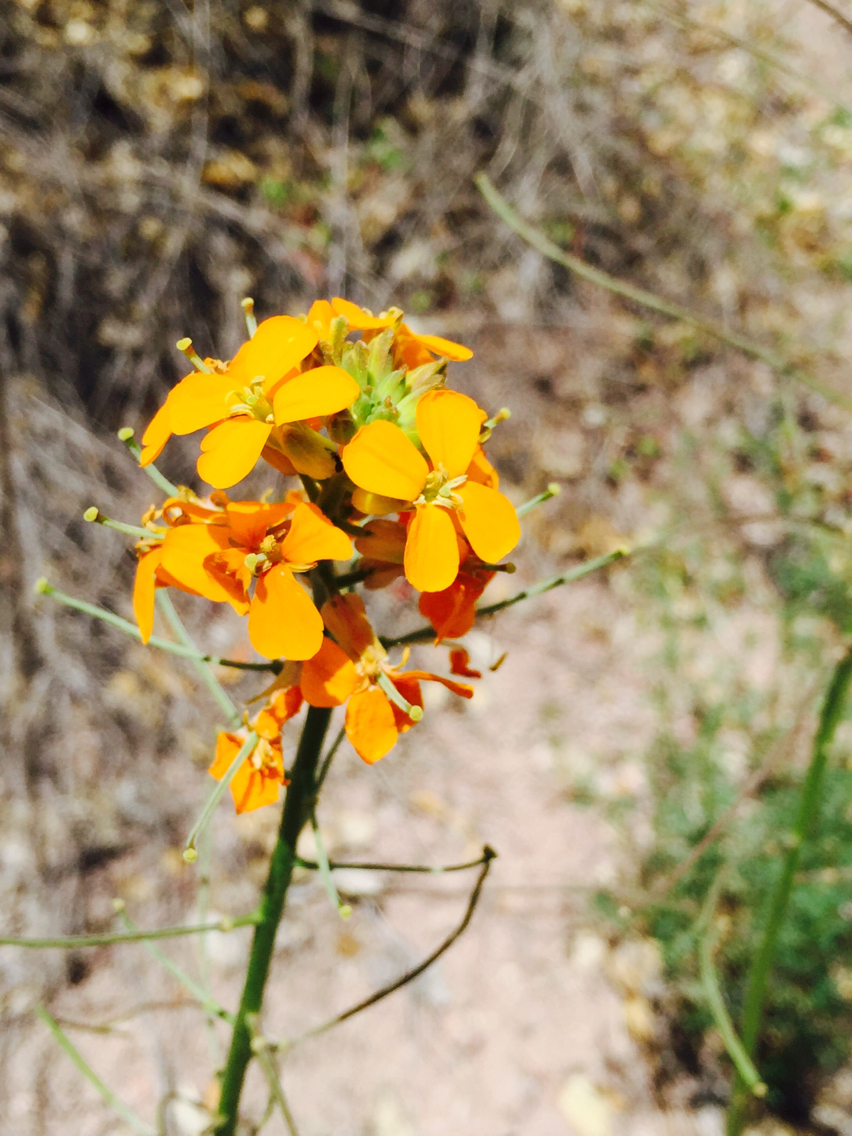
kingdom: Plantae
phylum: Tracheophyta
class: Magnoliopsida
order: Brassicales
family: Brassicaceae
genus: Erysimum
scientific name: Erysimum capitatum
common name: Western wallflower
